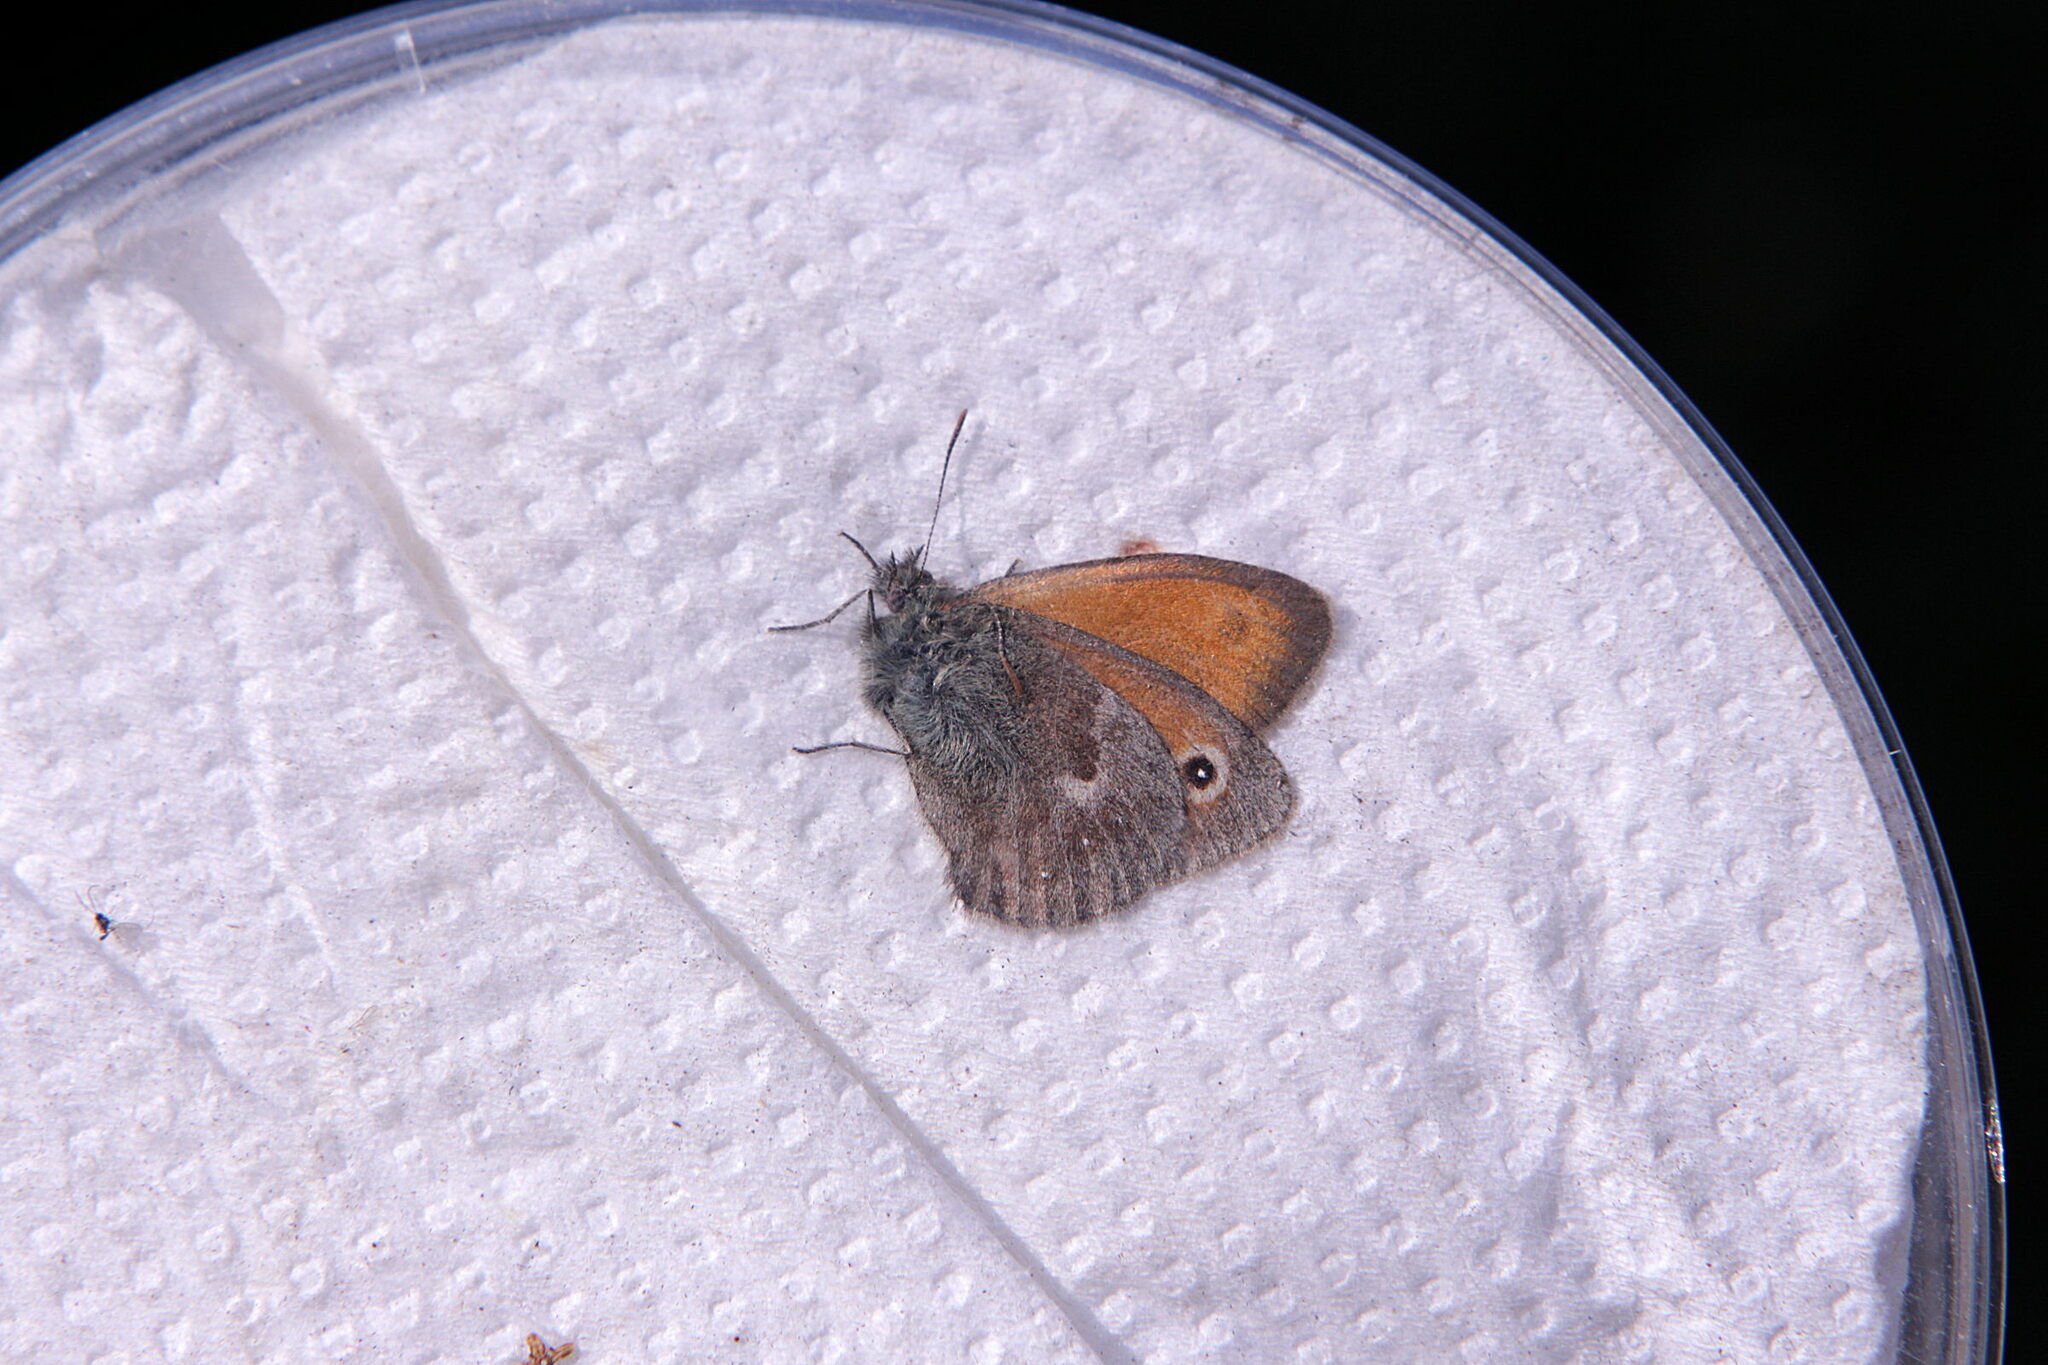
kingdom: Animalia
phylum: Arthropoda
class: Insecta
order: Lepidoptera
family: Nymphalidae
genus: Coenonympha
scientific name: Coenonympha pamphilus
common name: Small heath
